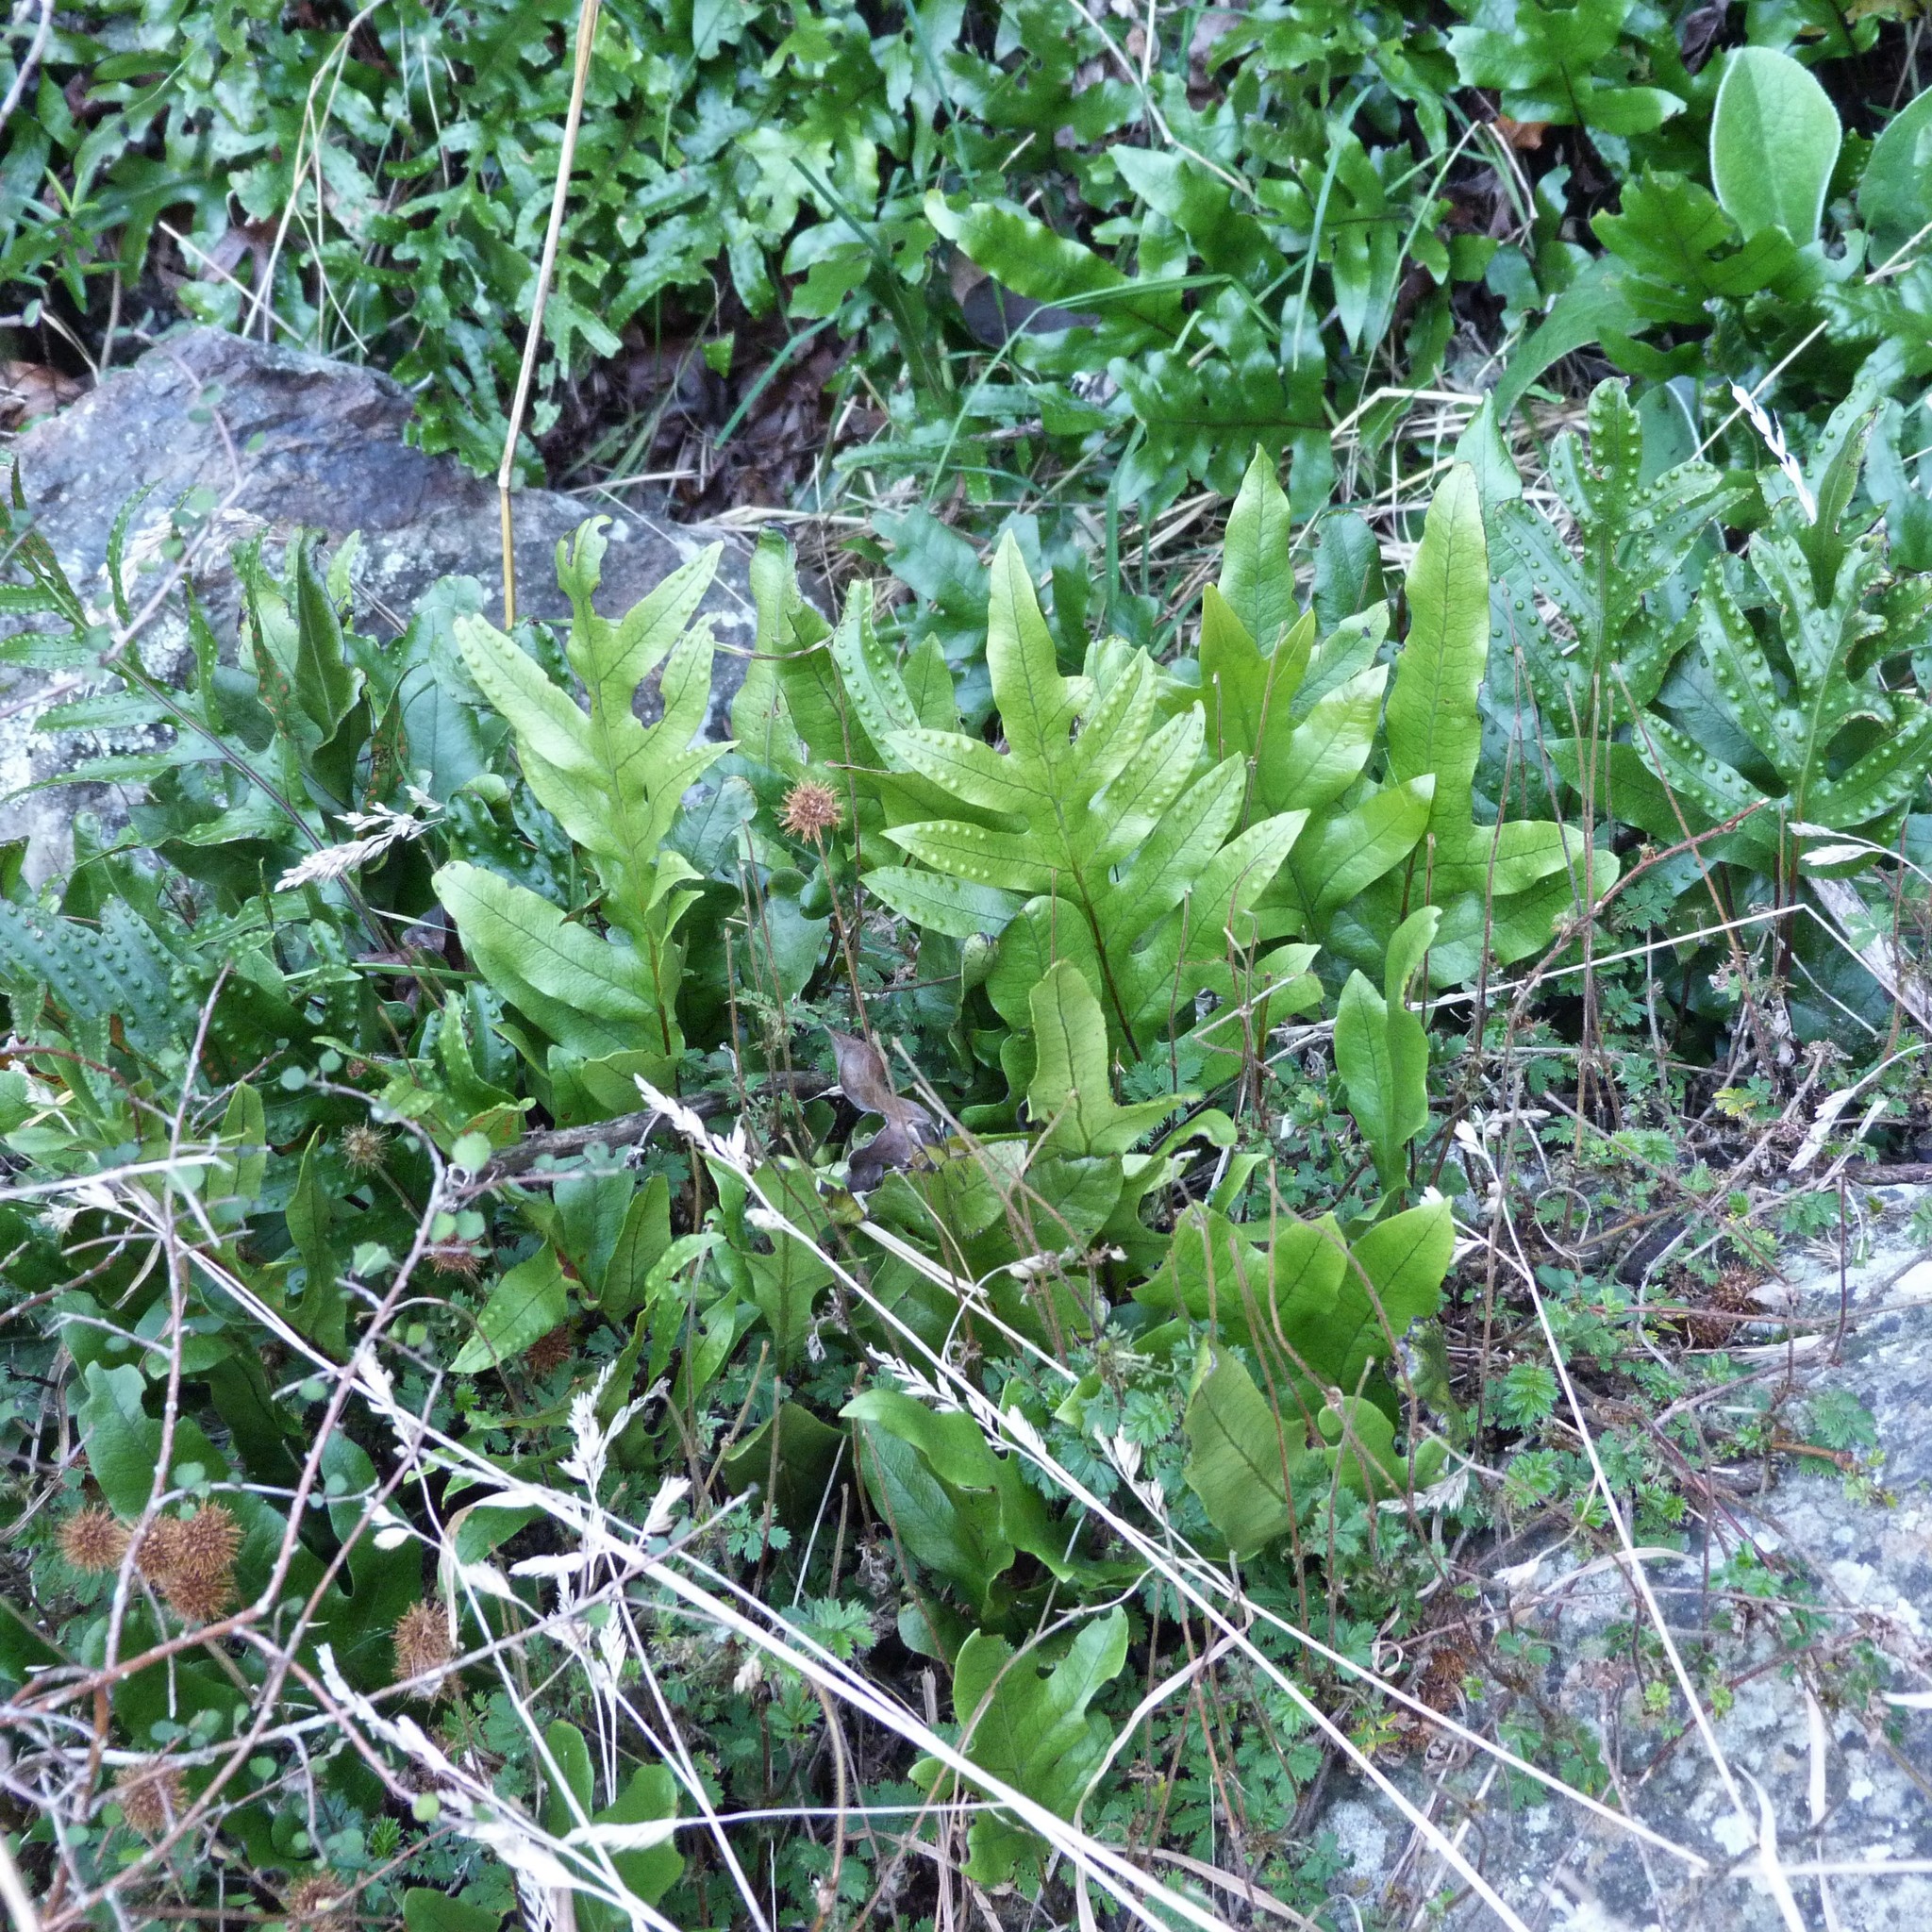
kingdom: Plantae
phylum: Tracheophyta
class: Polypodiopsida
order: Polypodiales
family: Polypodiaceae
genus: Lecanopteris
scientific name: Lecanopteris pustulata
